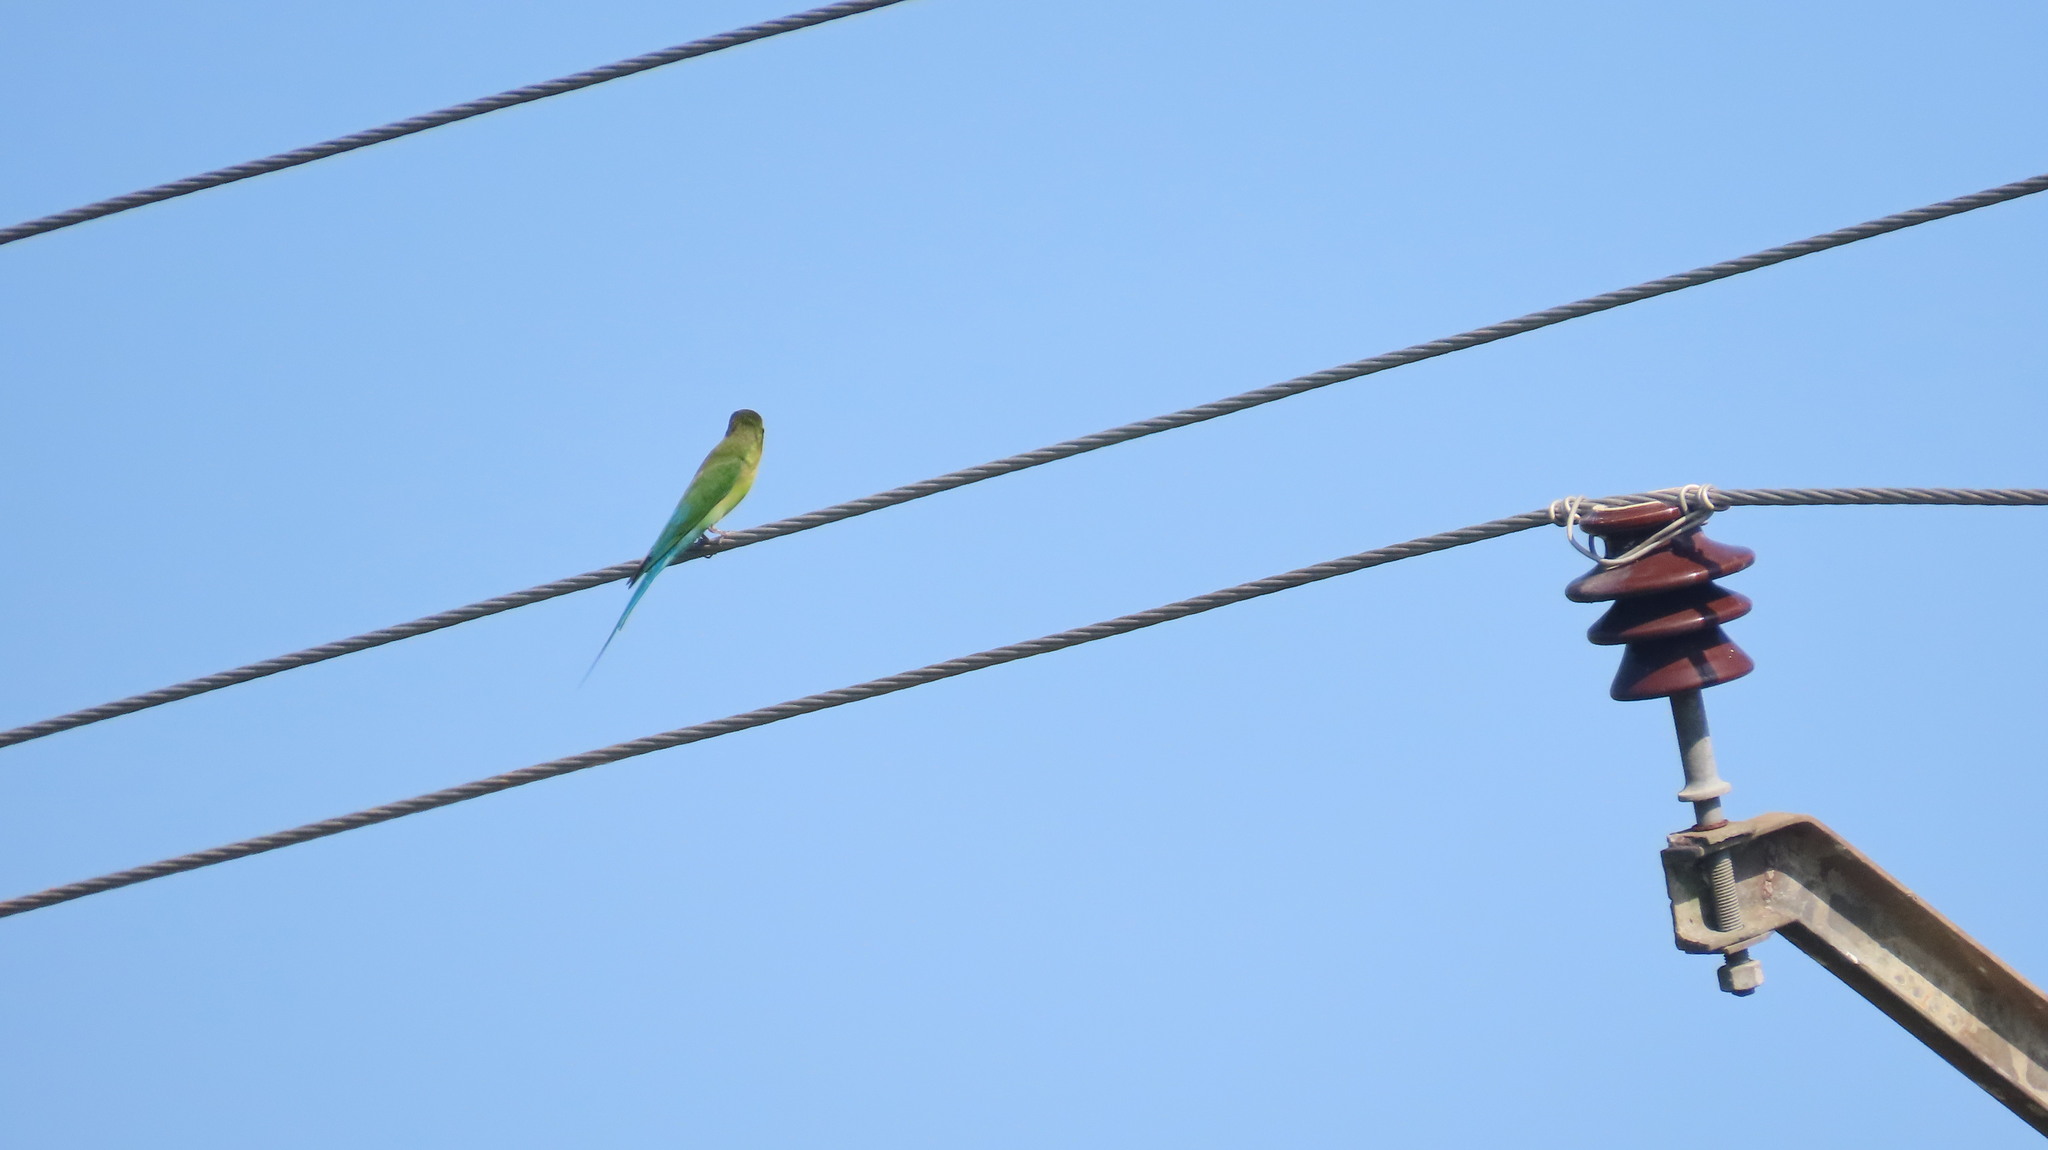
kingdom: Animalia
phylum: Chordata
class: Aves
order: Coraciiformes
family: Meropidae
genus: Merops
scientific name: Merops philippinus
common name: Blue-tailed bee-eater
